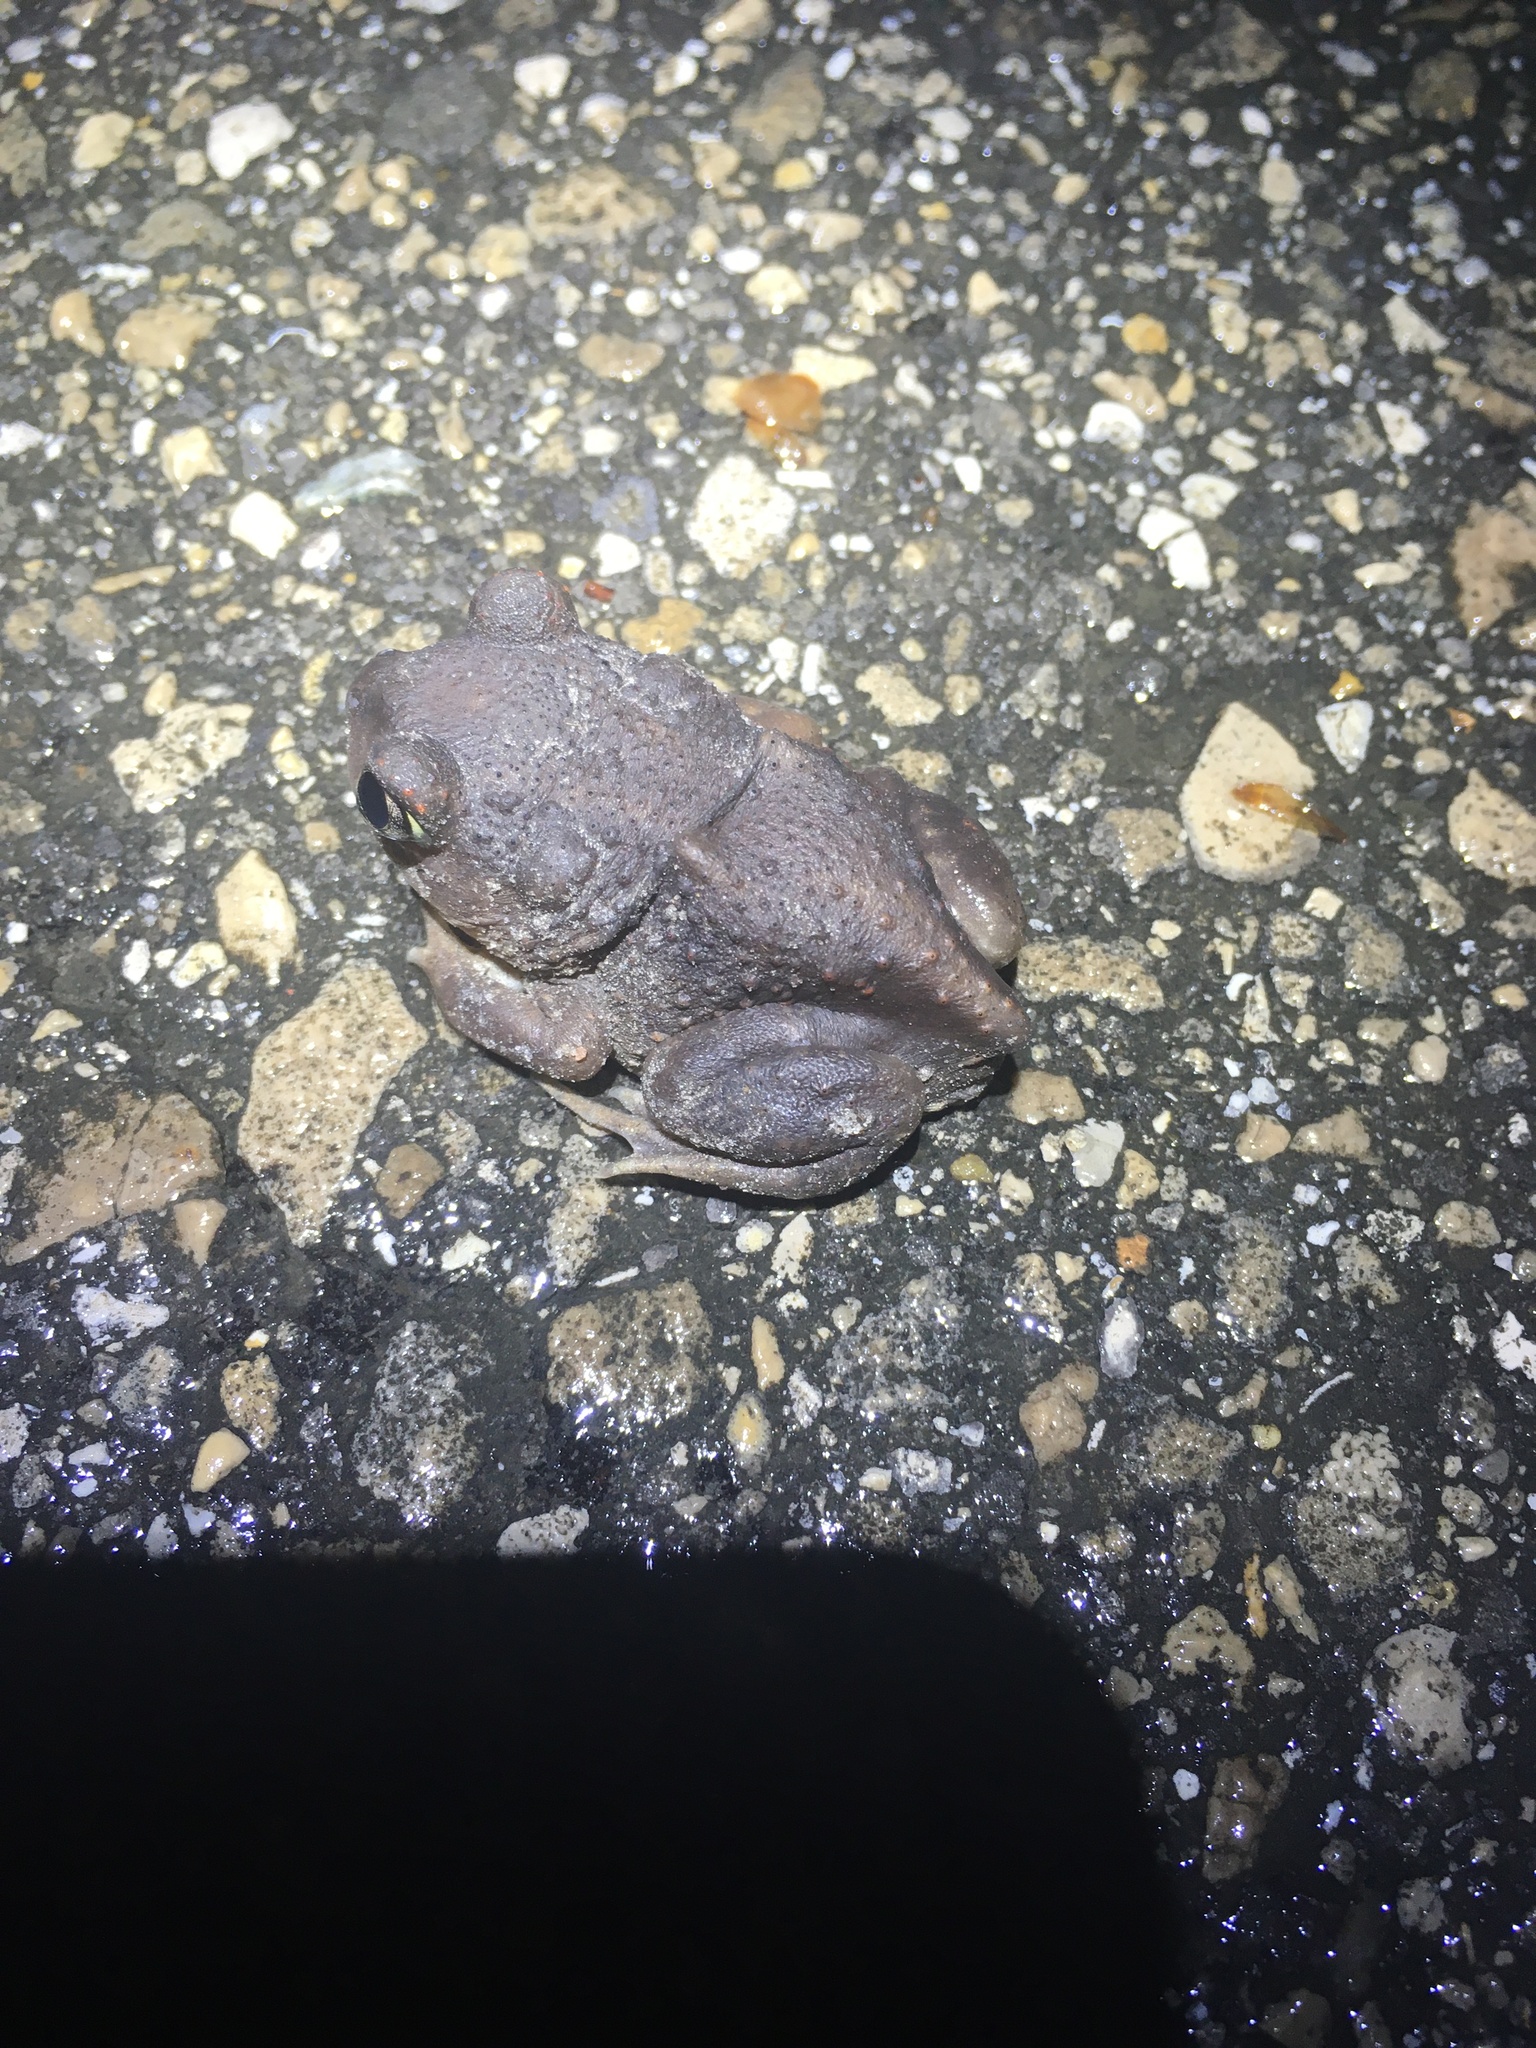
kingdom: Animalia
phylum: Chordata
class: Amphibia
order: Anura
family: Scaphiopodidae
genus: Scaphiopus
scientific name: Scaphiopus holbrookii
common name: Eastern spadefoot toad
